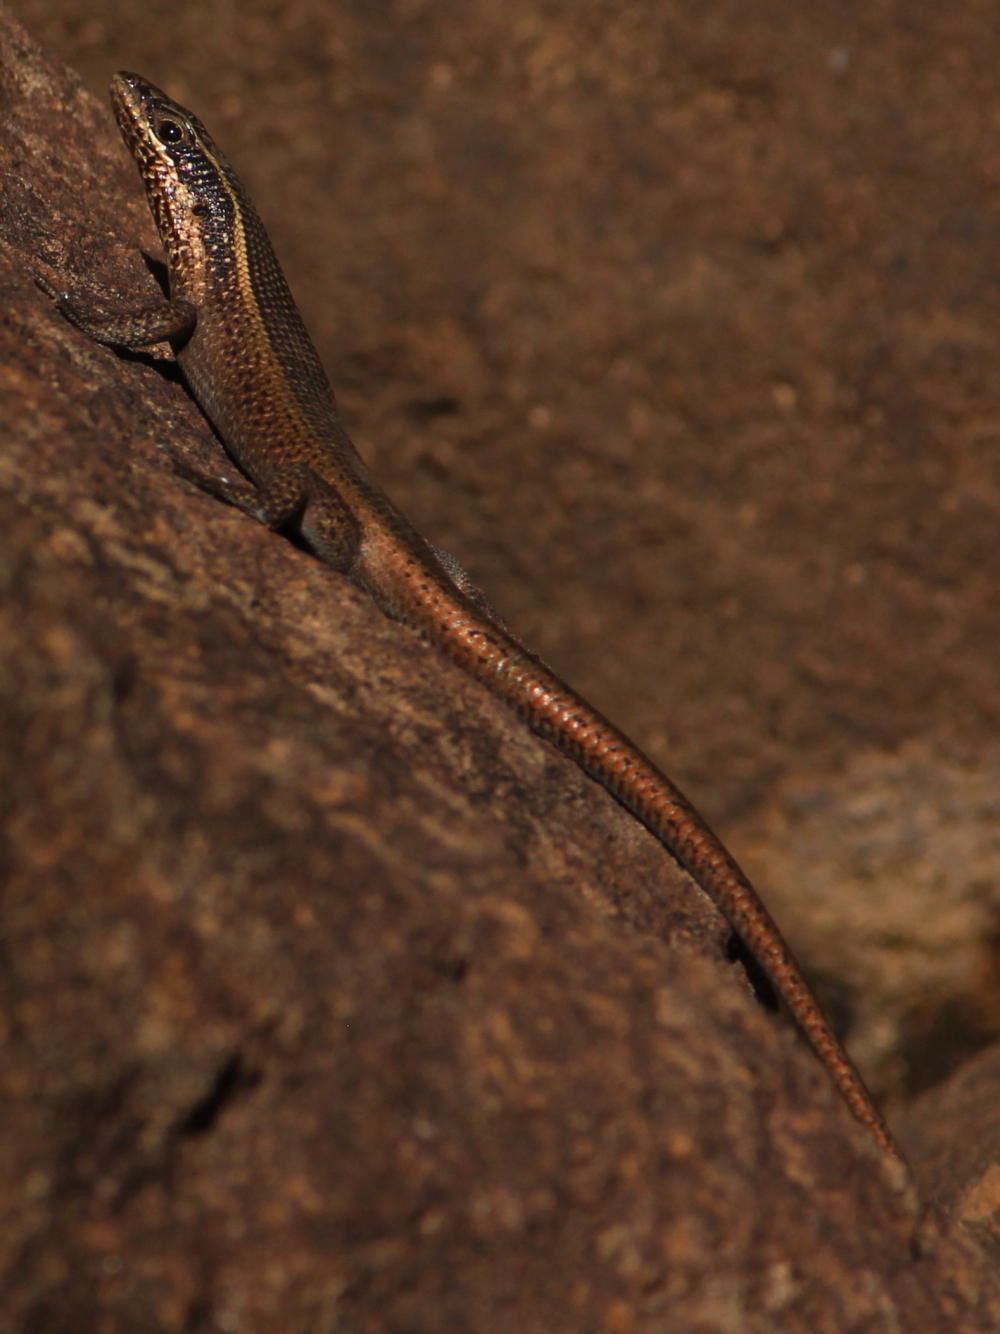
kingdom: Animalia
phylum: Chordata
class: Squamata
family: Scincidae
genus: Trachylepis
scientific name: Trachylepis punctatissima
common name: Montane speckled skink
